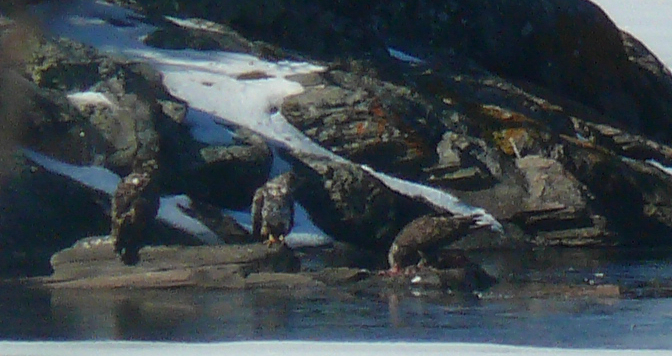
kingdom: Animalia
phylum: Chordata
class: Aves
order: Accipitriformes
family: Accipitridae
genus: Haliaeetus
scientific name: Haliaeetus leucocephalus
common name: Bald eagle
